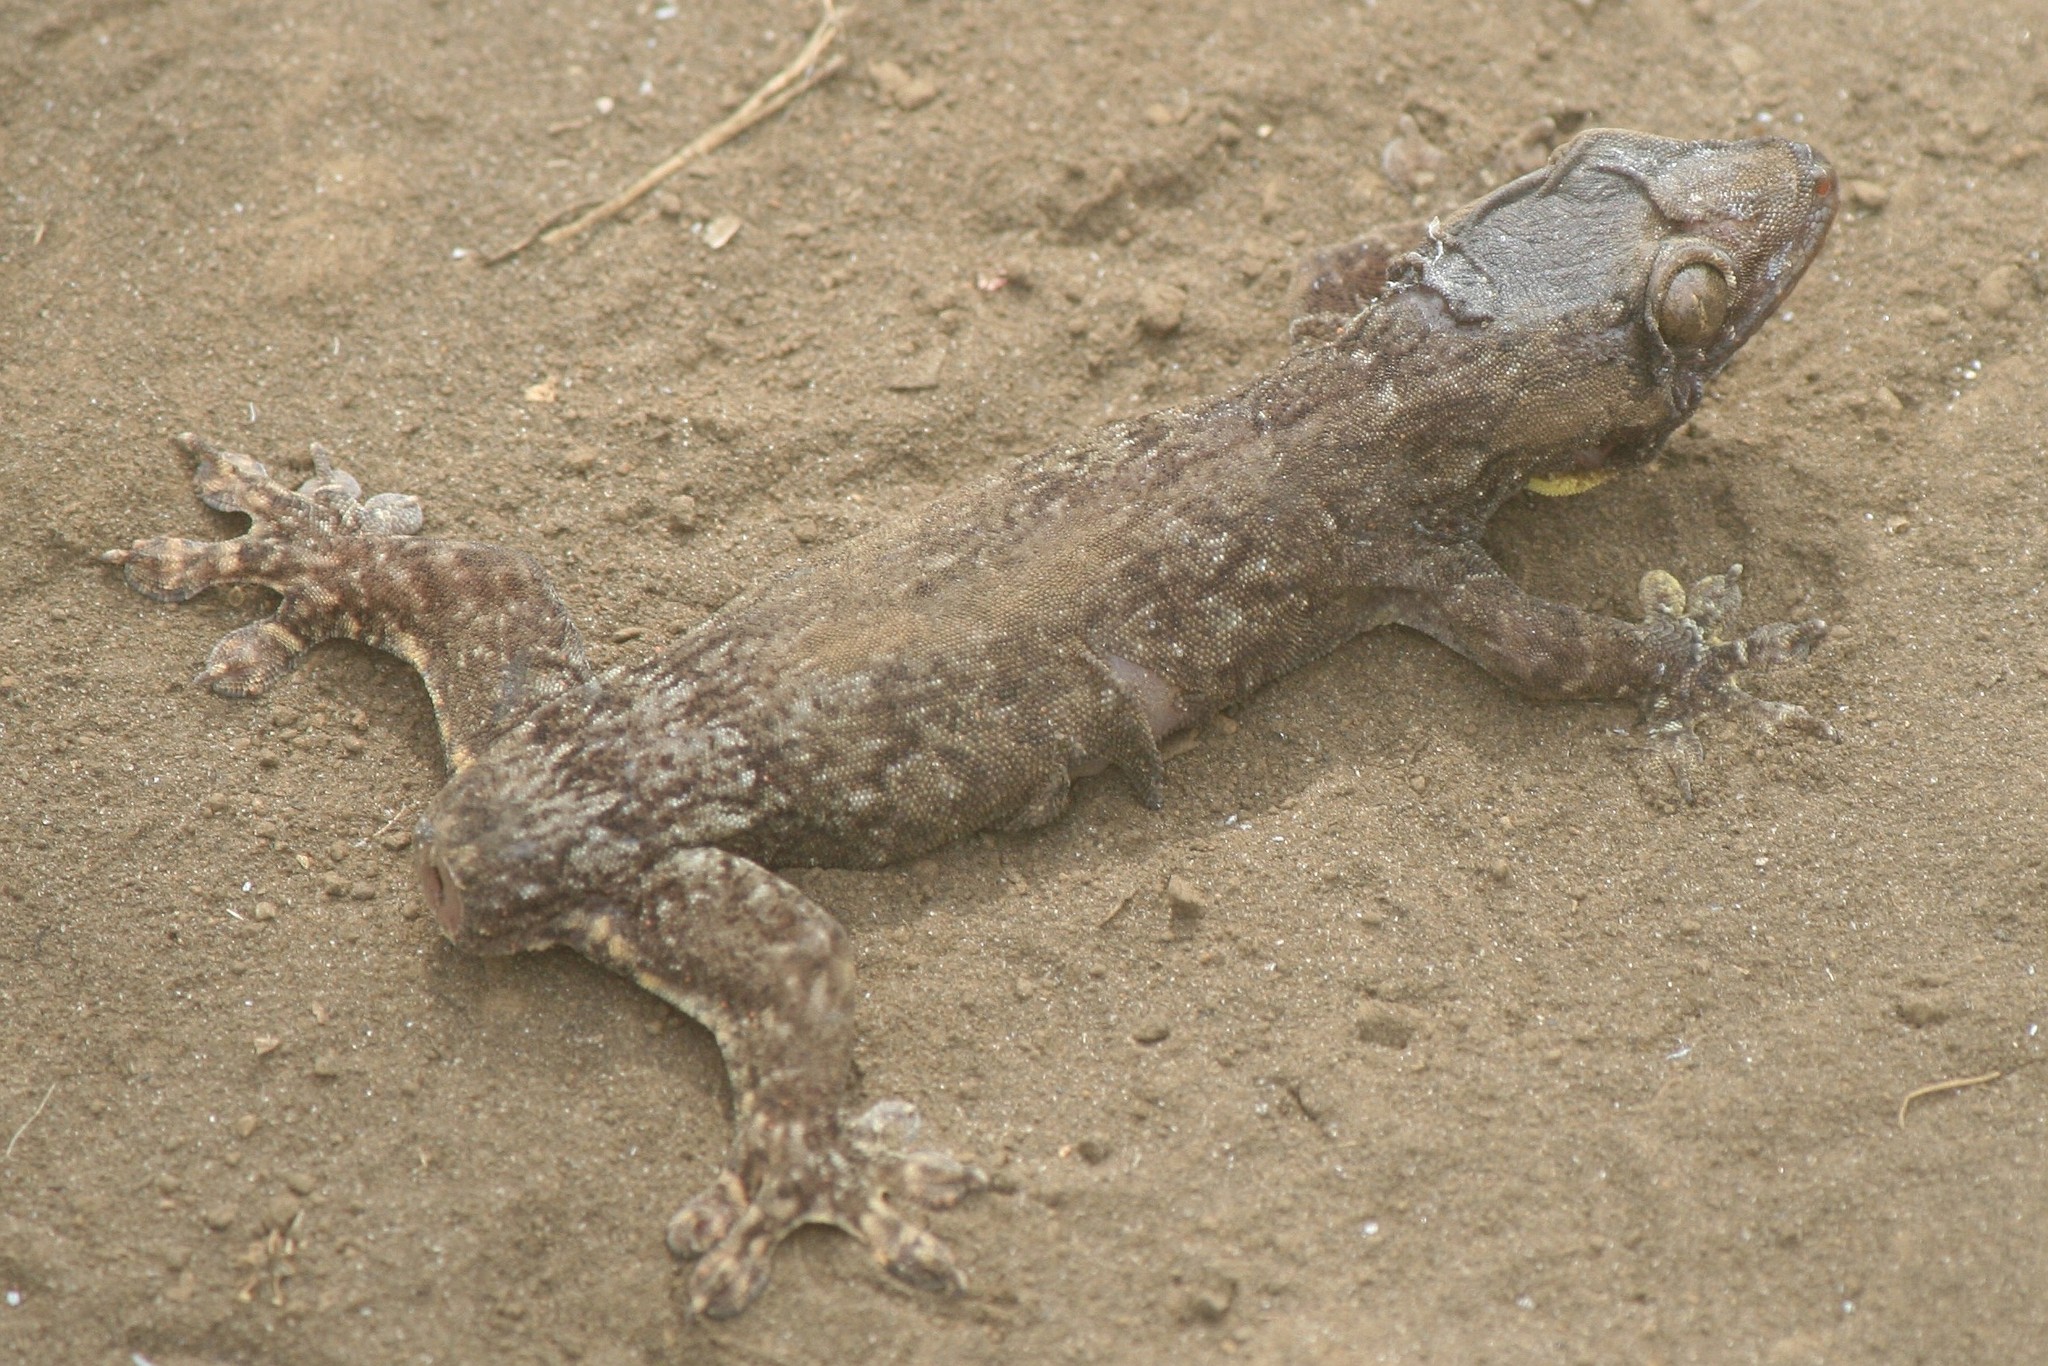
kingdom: Animalia
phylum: Chordata
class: Squamata
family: Gekkonidae
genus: Gehyra
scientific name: Gehyra oceanica
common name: Pacific dtella
